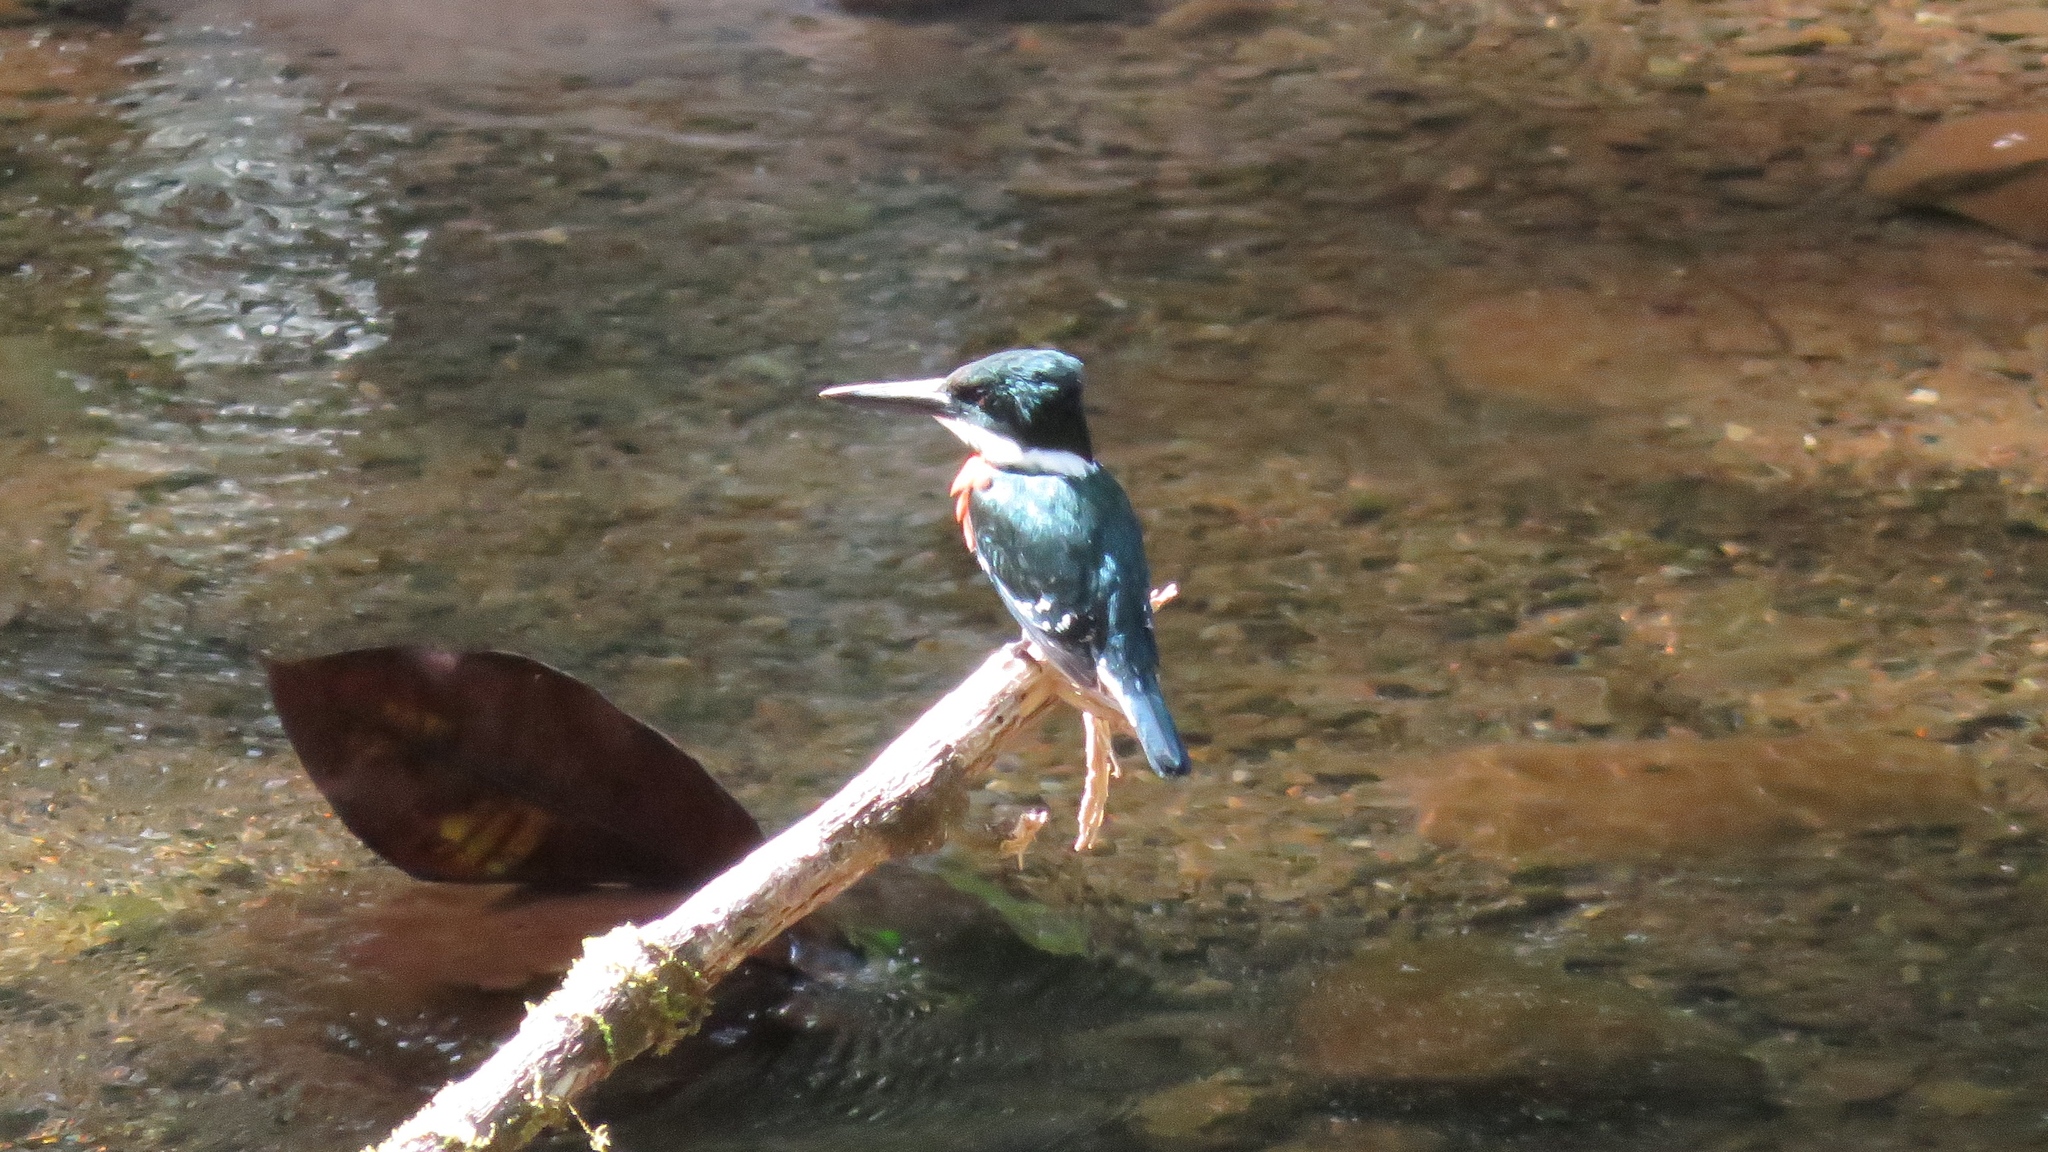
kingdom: Animalia
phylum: Chordata
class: Aves
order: Coraciiformes
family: Alcedinidae
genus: Chloroceryle
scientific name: Chloroceryle americana
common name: Green kingfisher
